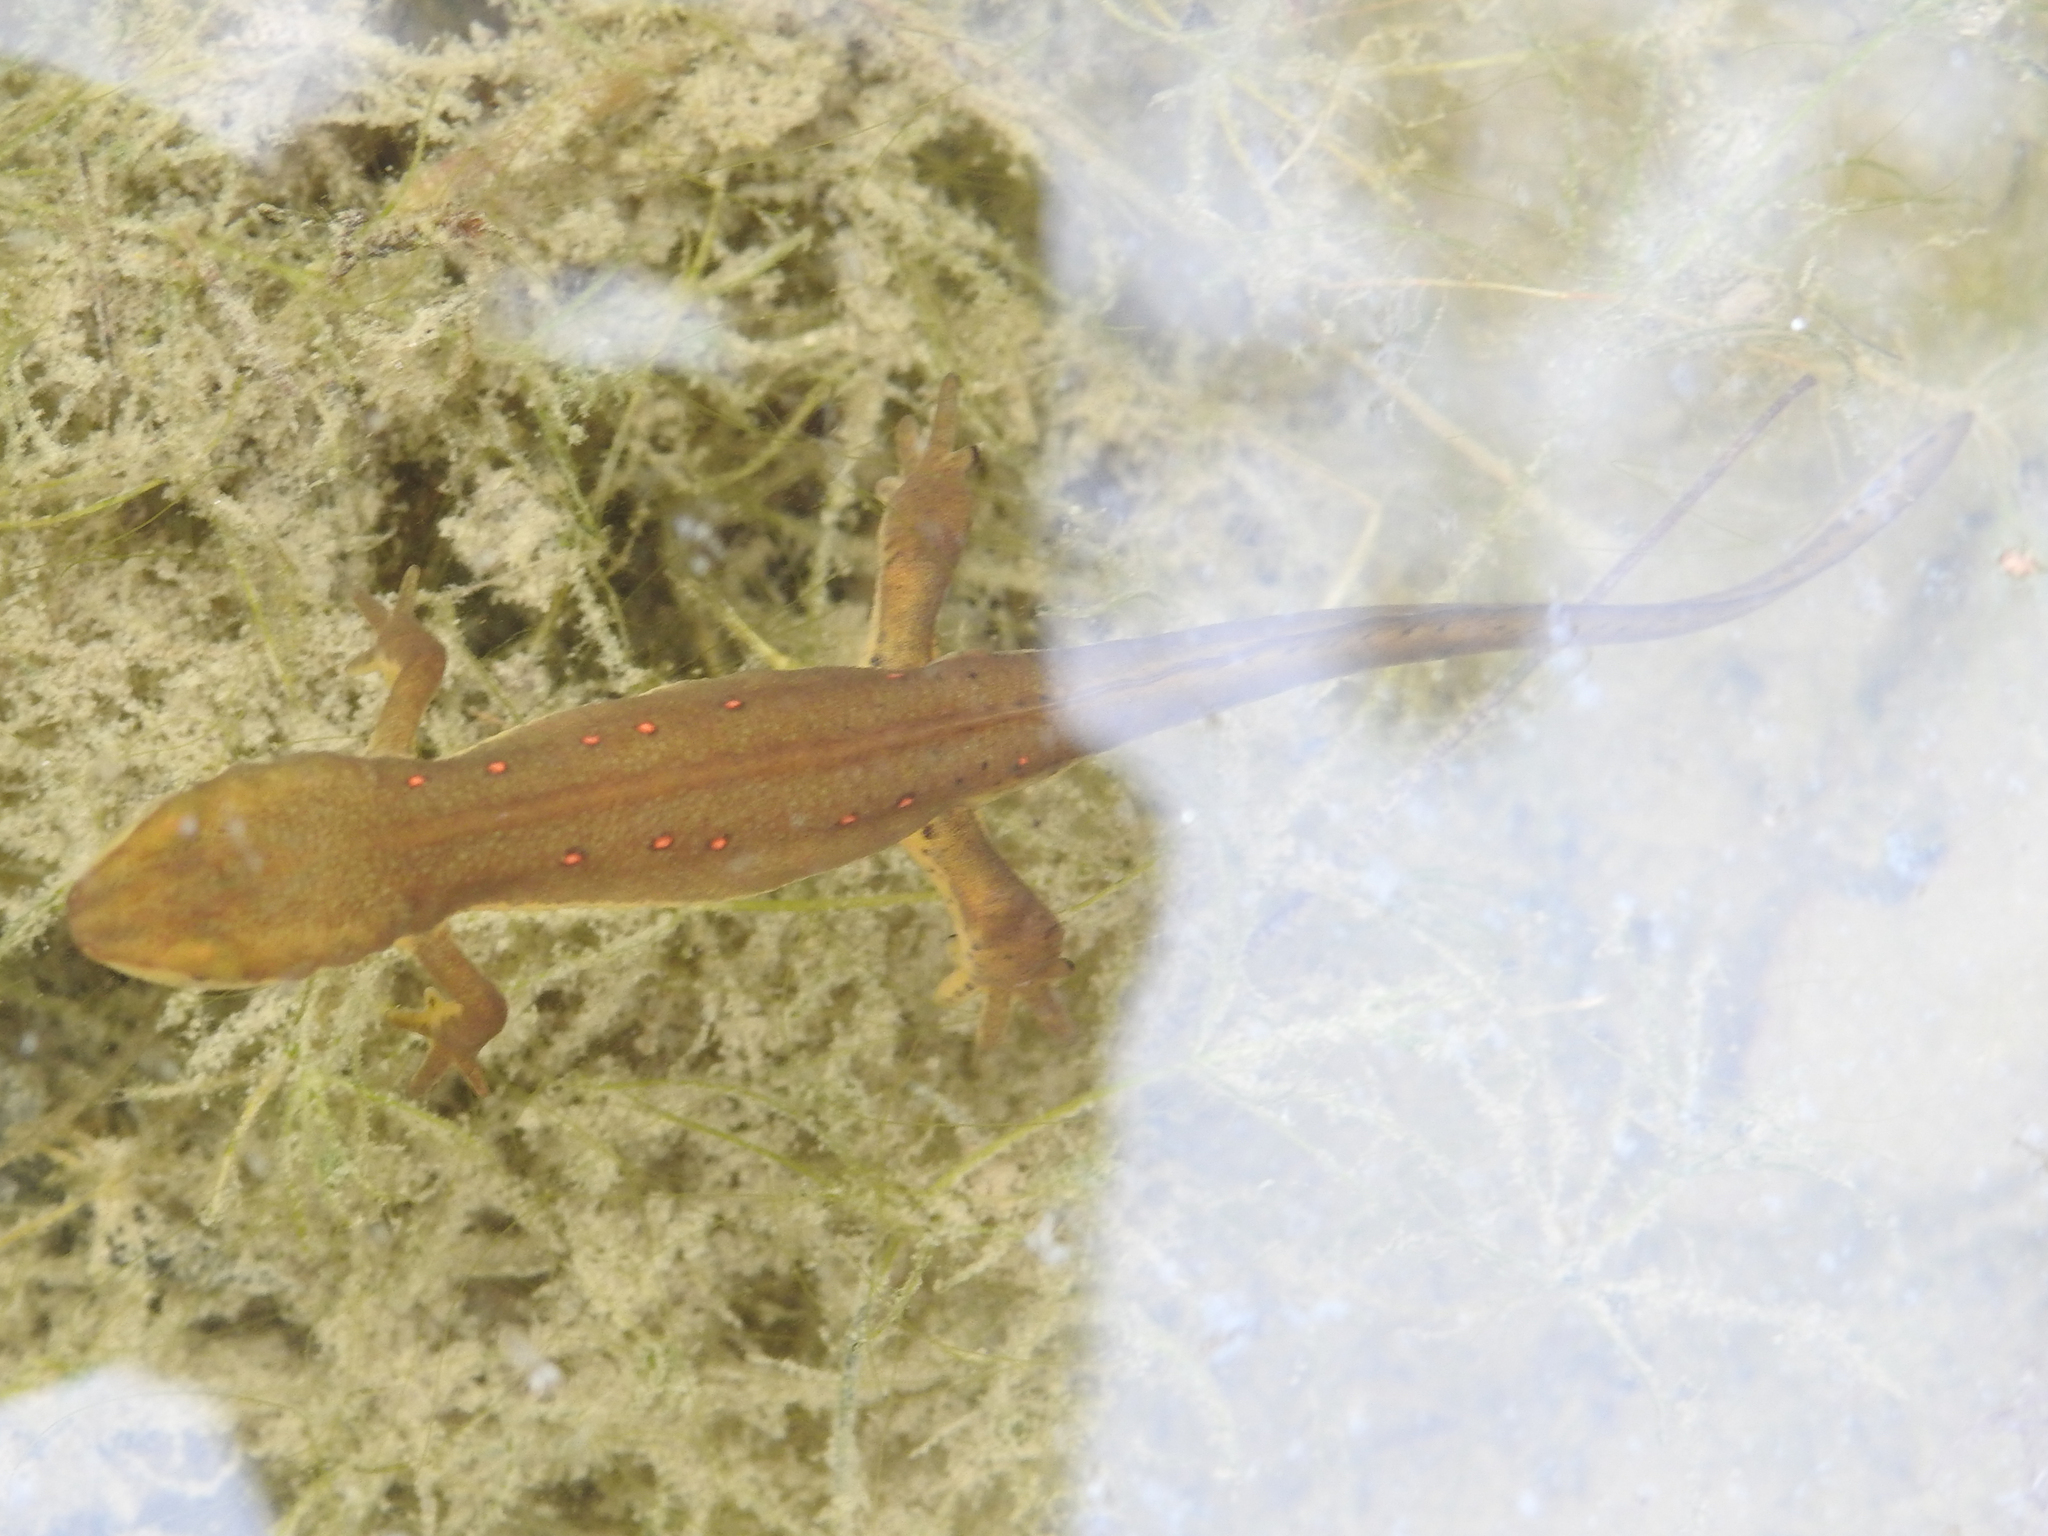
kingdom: Animalia
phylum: Chordata
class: Amphibia
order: Caudata
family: Salamandridae
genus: Notophthalmus
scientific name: Notophthalmus viridescens
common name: Eastern newt
